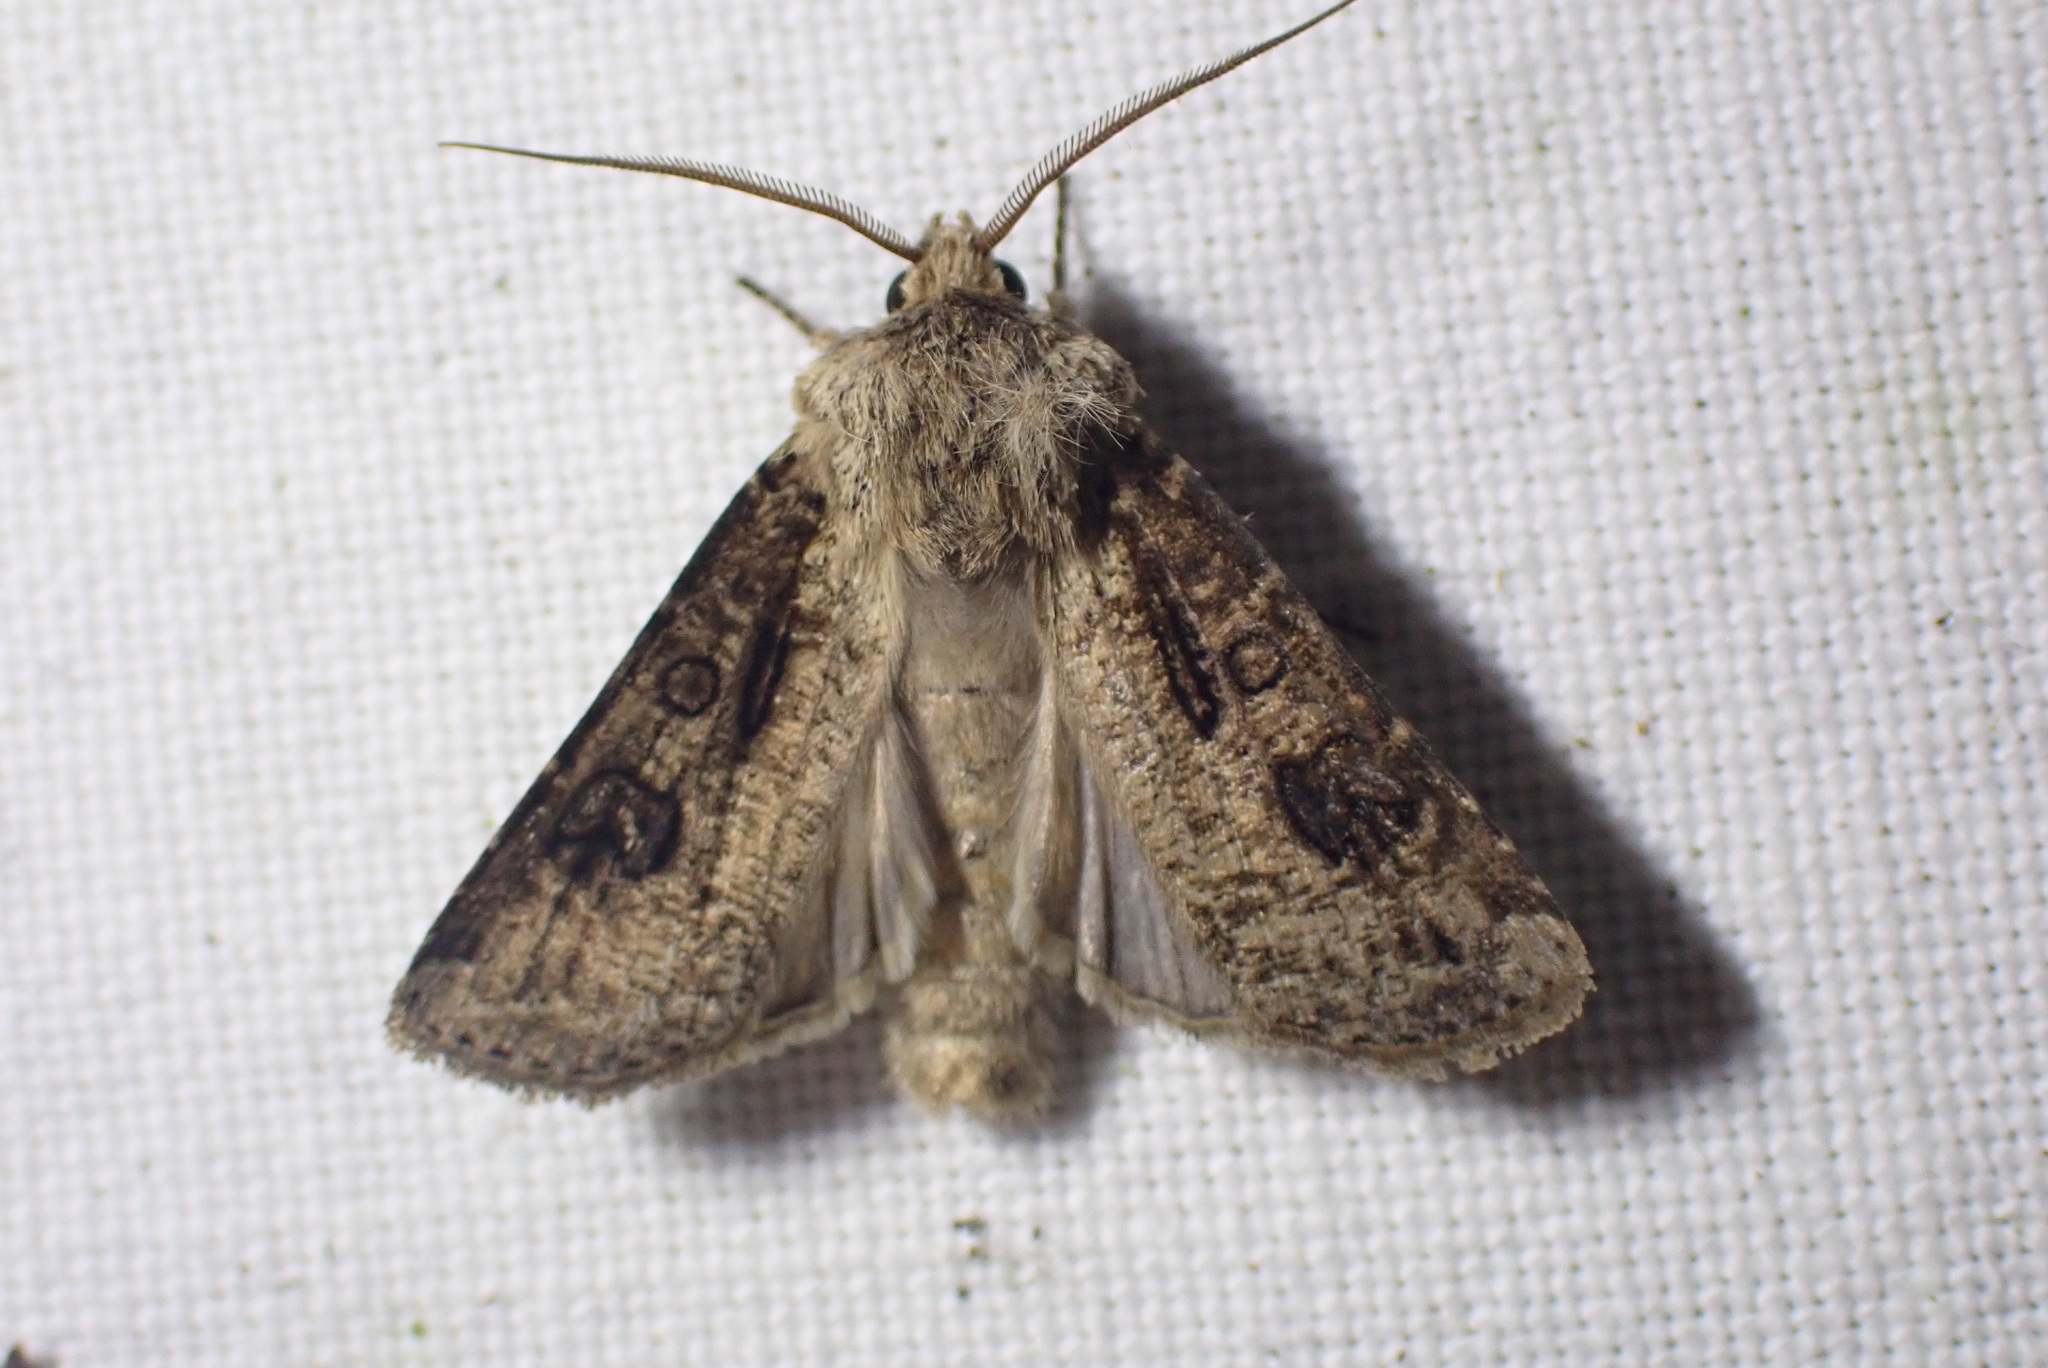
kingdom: Animalia
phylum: Arthropoda
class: Insecta
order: Lepidoptera
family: Noctuidae
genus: Agrotis
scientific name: Agrotis clavis
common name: Heart and club
